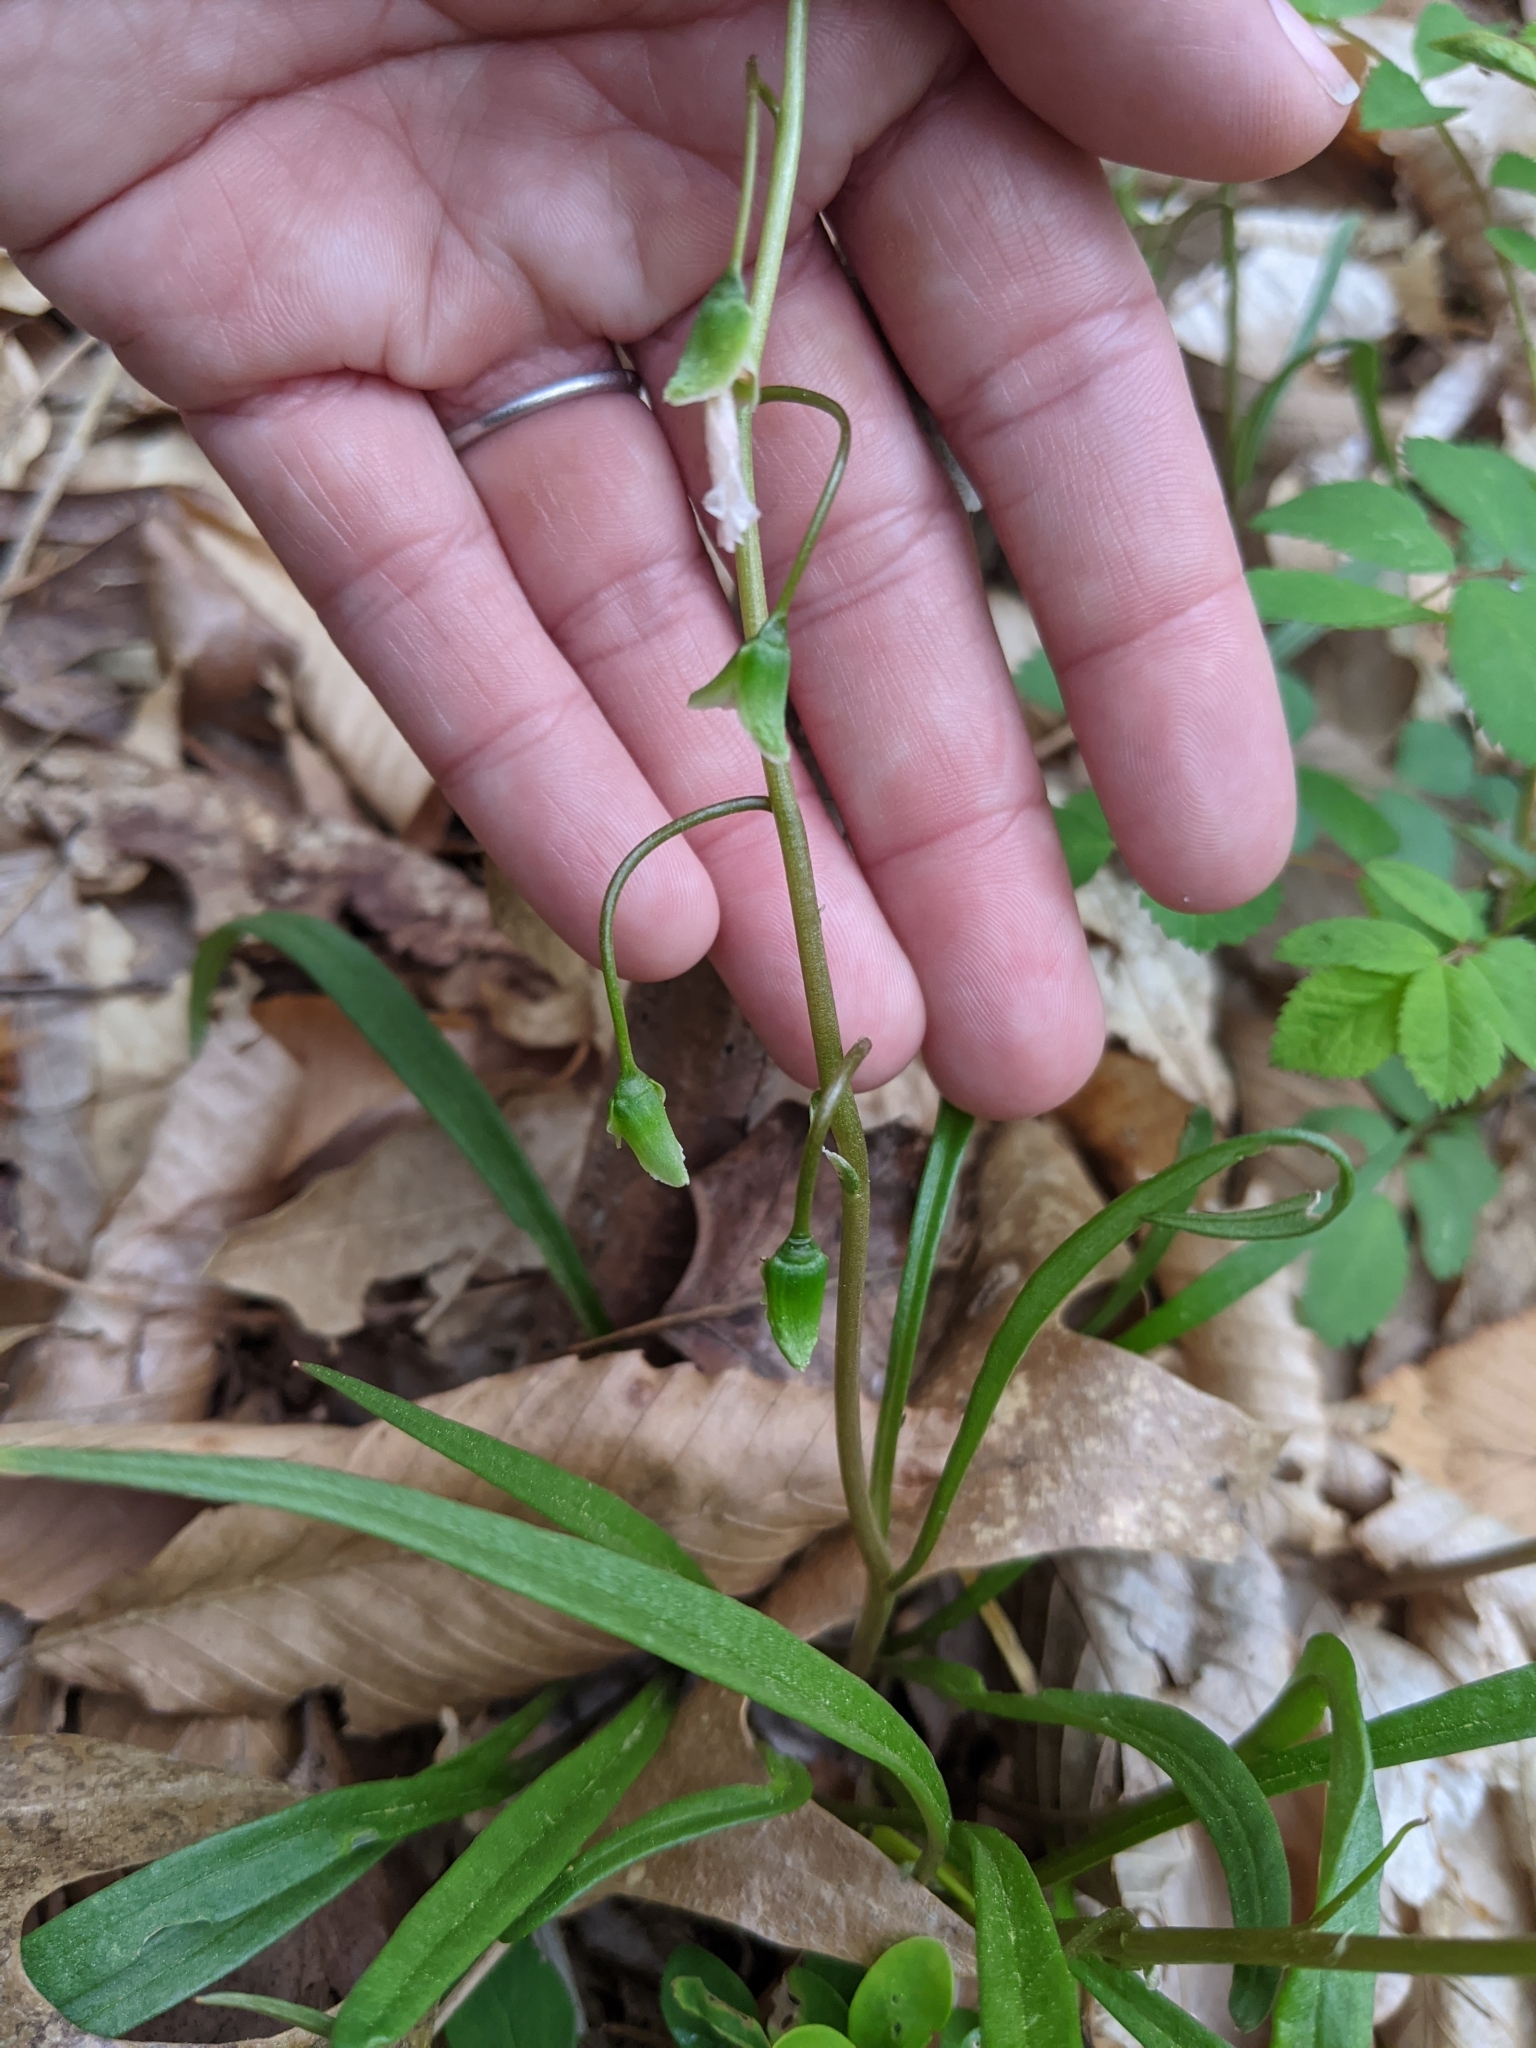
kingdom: Plantae
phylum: Tracheophyta
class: Magnoliopsida
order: Caryophyllales
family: Montiaceae
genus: Claytonia
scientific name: Claytonia virginica
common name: Virginia springbeauty
